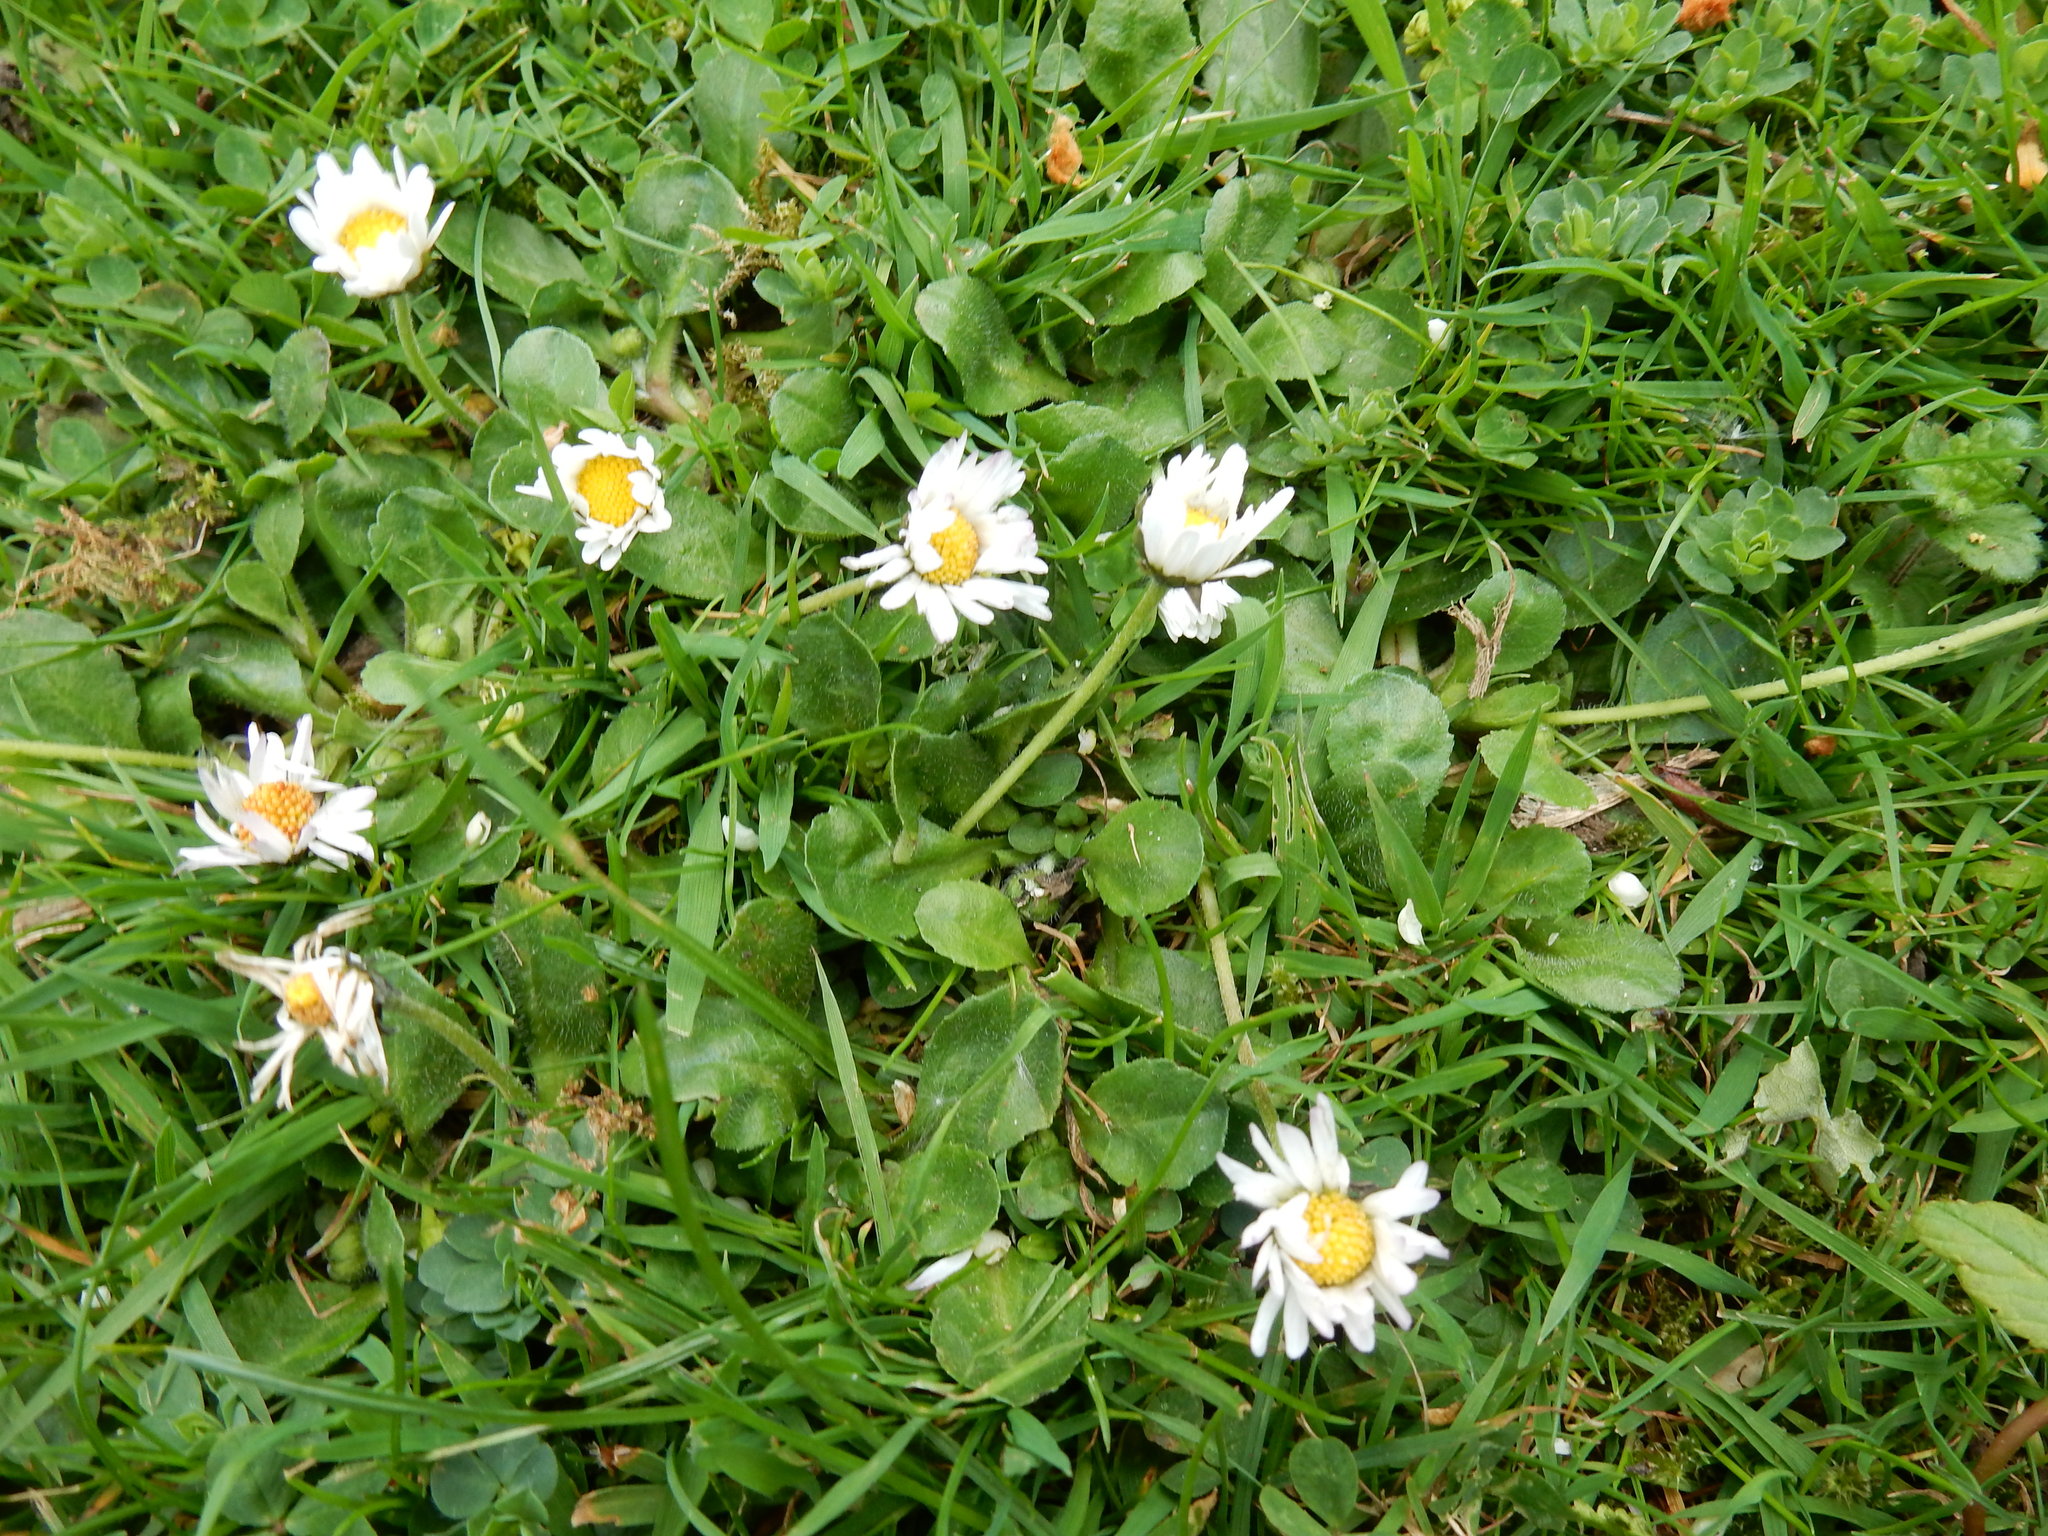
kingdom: Plantae
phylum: Tracheophyta
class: Magnoliopsida
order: Asterales
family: Asteraceae
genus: Bellis
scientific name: Bellis perennis
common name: Lawndaisy
